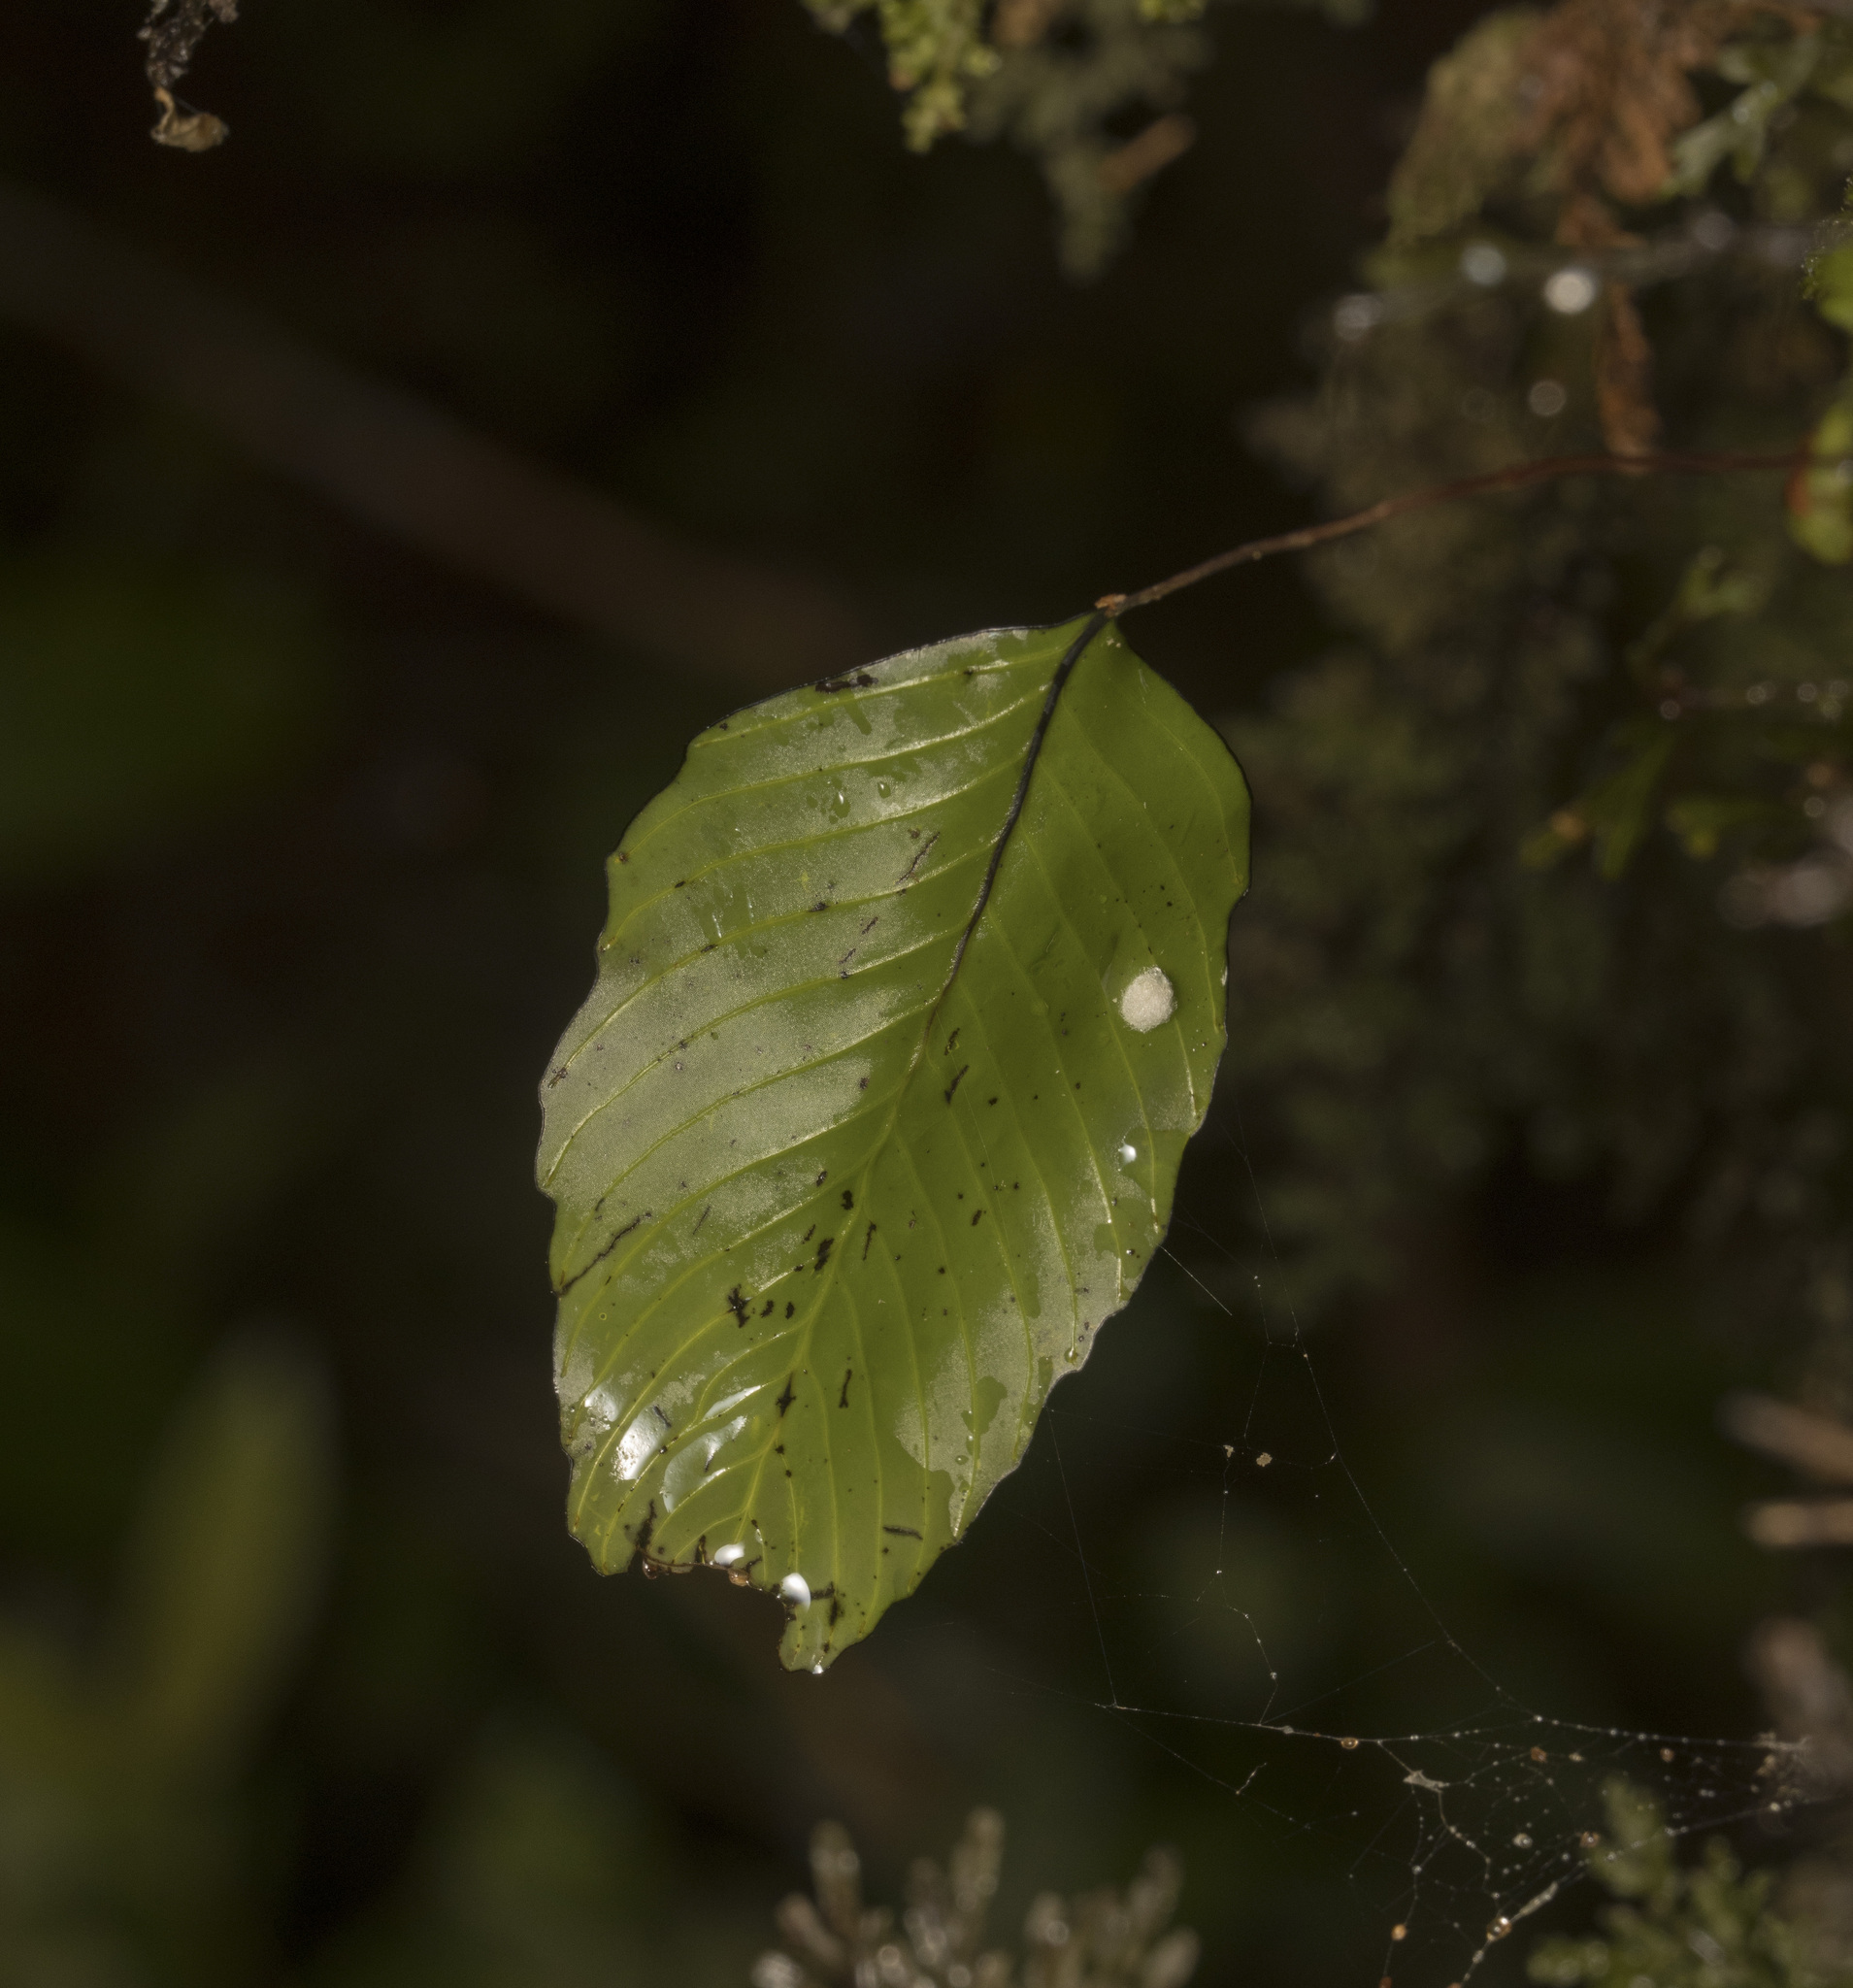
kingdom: Plantae
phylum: Tracheophyta
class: Polypodiopsida
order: Hymenophyllales
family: Hymenophyllaceae
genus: Hymenophyllum
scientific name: Hymenophyllum cruentum
